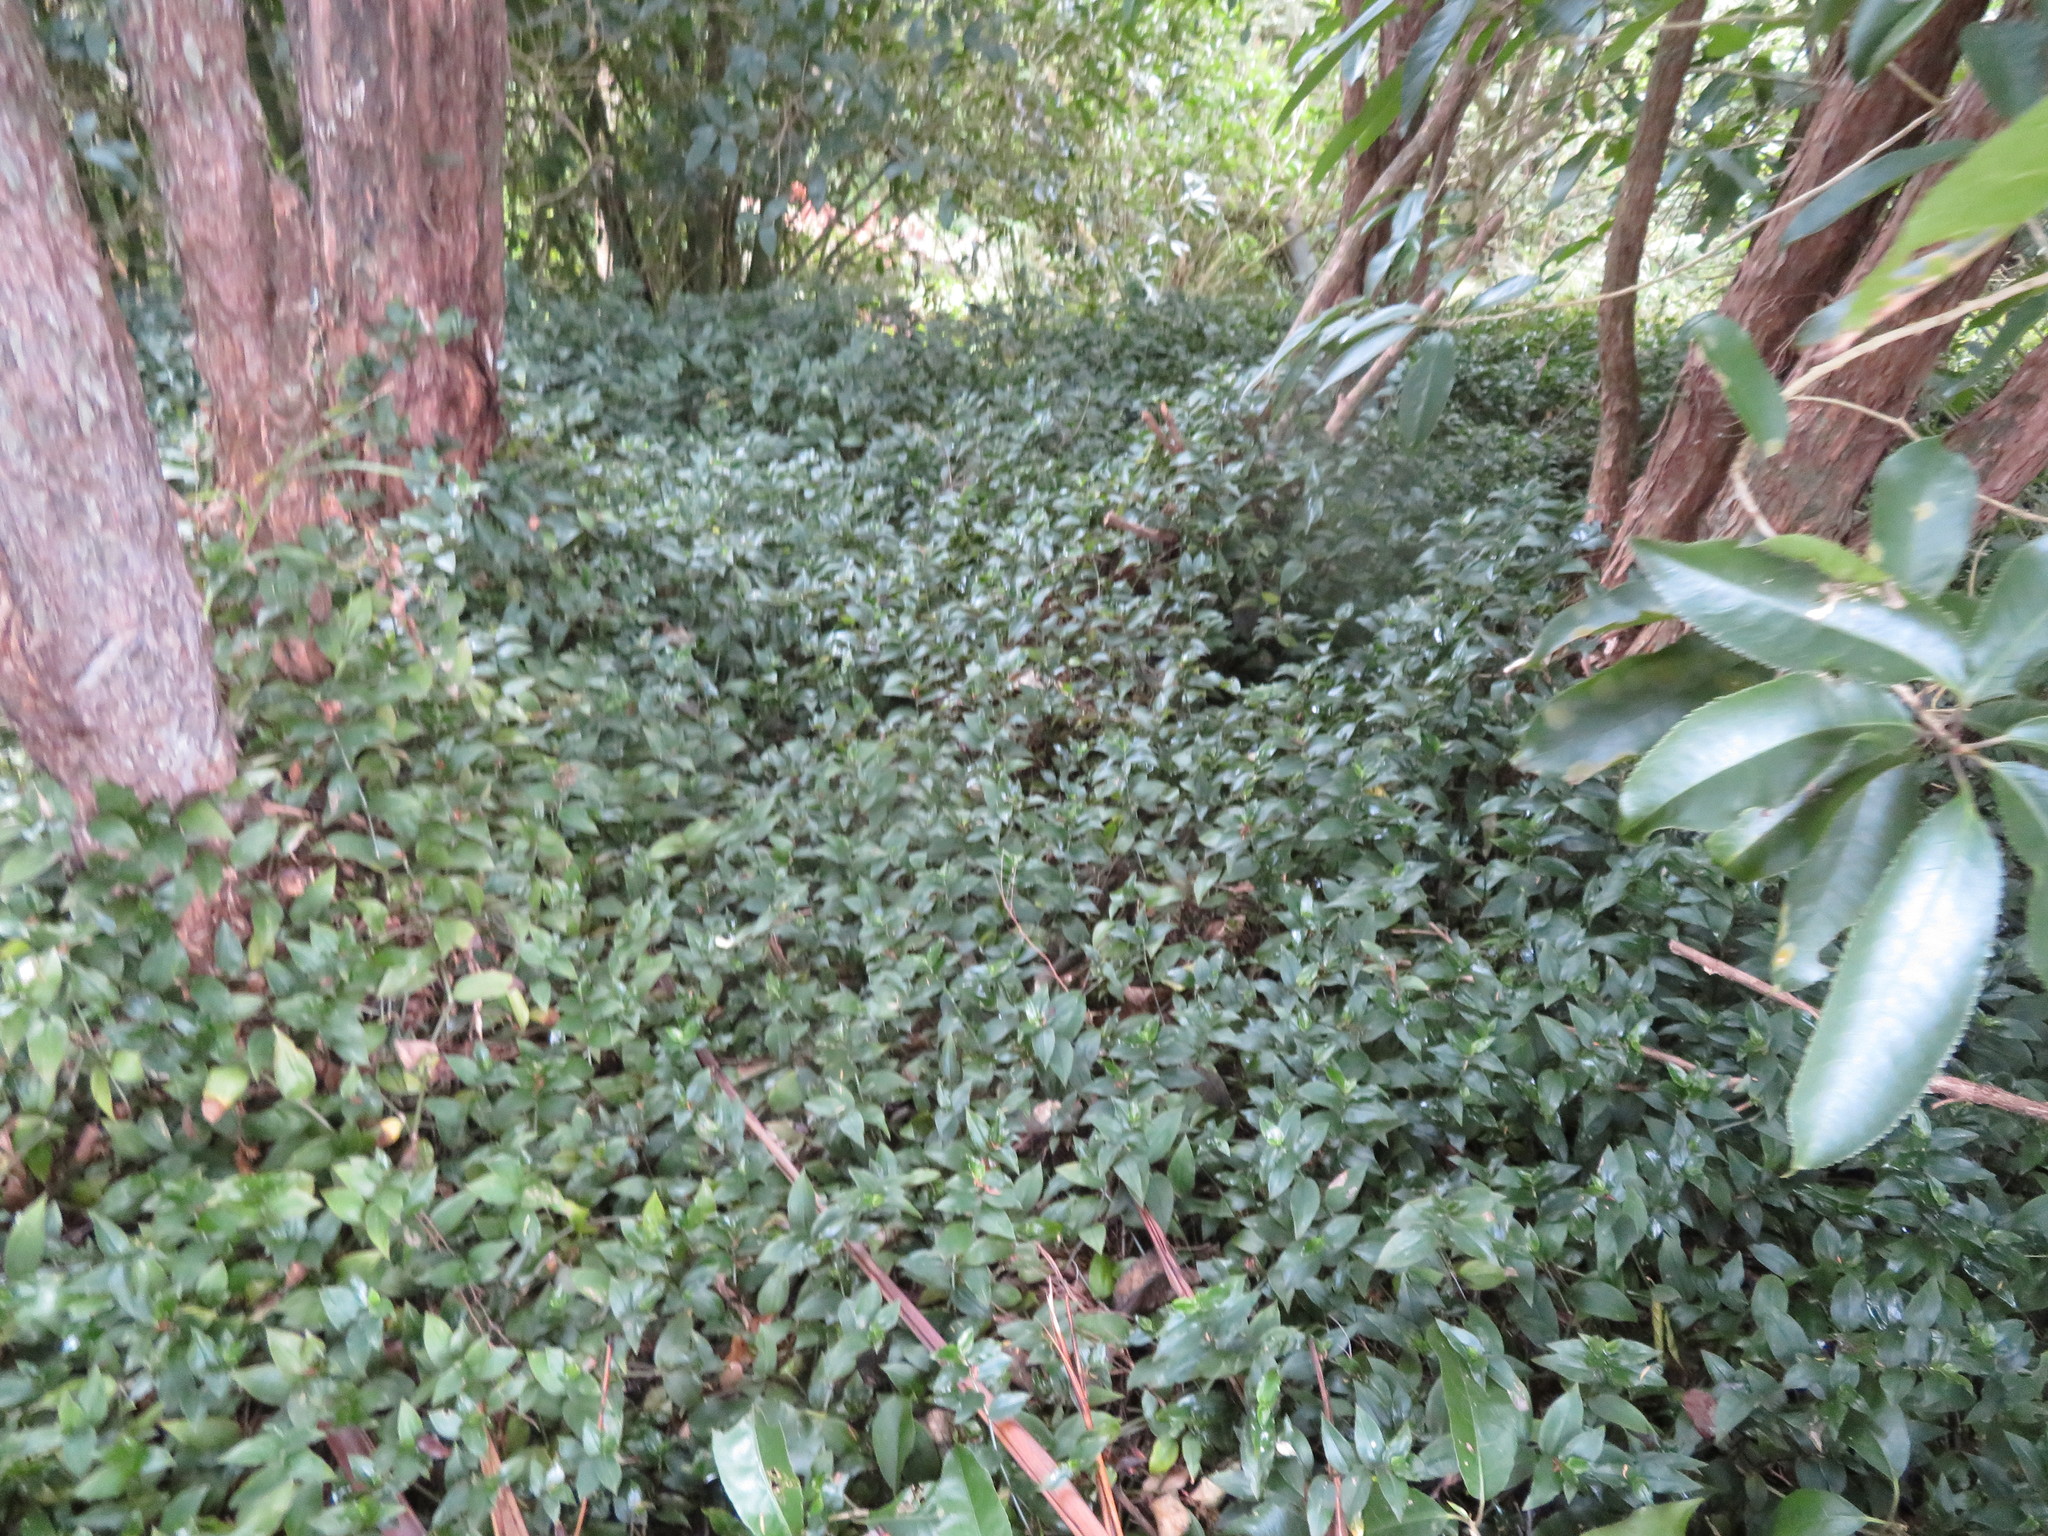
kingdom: Plantae
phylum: Tracheophyta
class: Liliopsida
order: Commelinales
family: Commelinaceae
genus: Tradescantia
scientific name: Tradescantia fluminensis
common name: Wandering-jew
